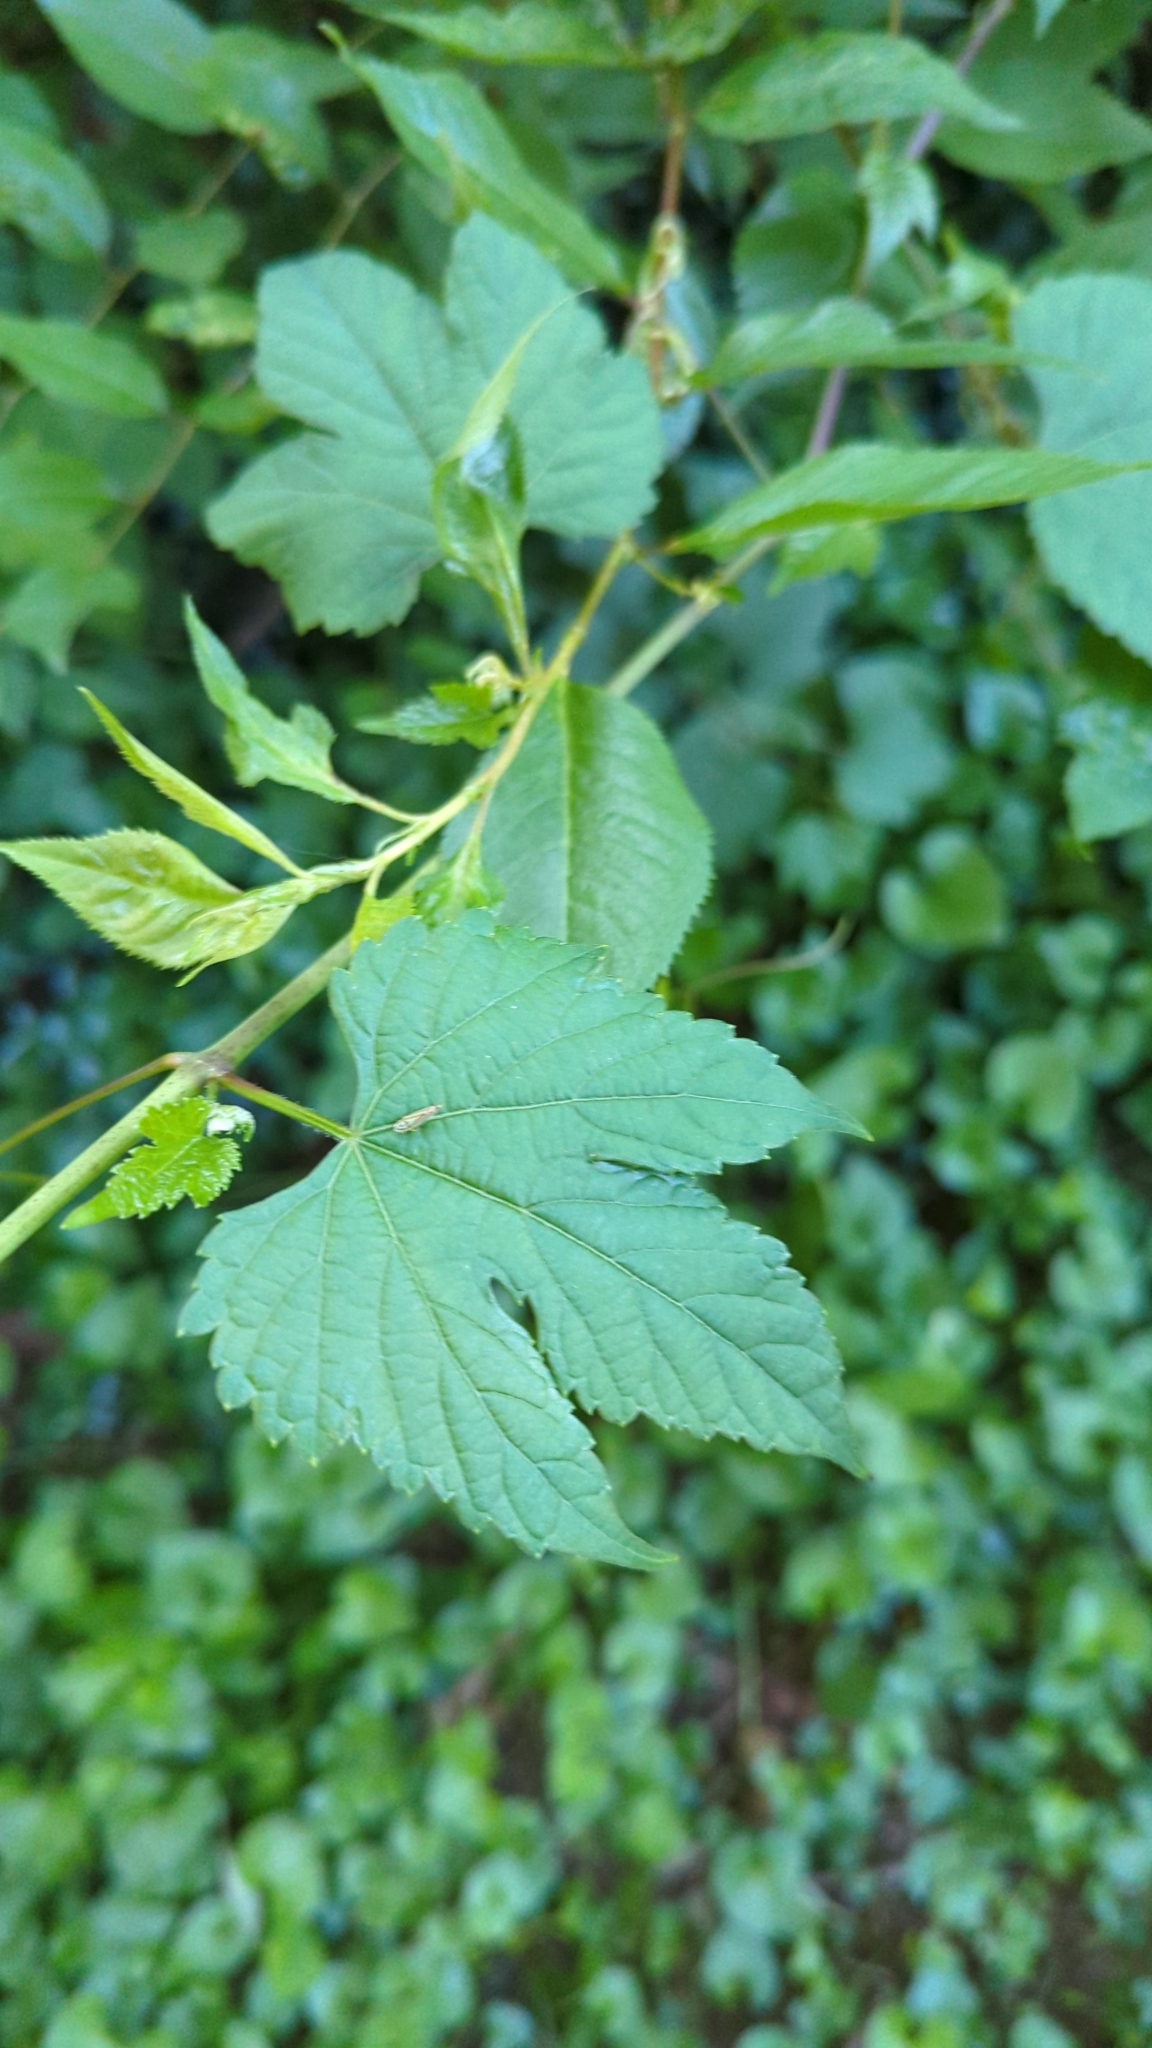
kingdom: Plantae
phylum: Tracheophyta
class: Magnoliopsida
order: Vitales
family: Vitaceae
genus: Ampelopsis
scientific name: Ampelopsis glandulosa
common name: Amur peppervine
